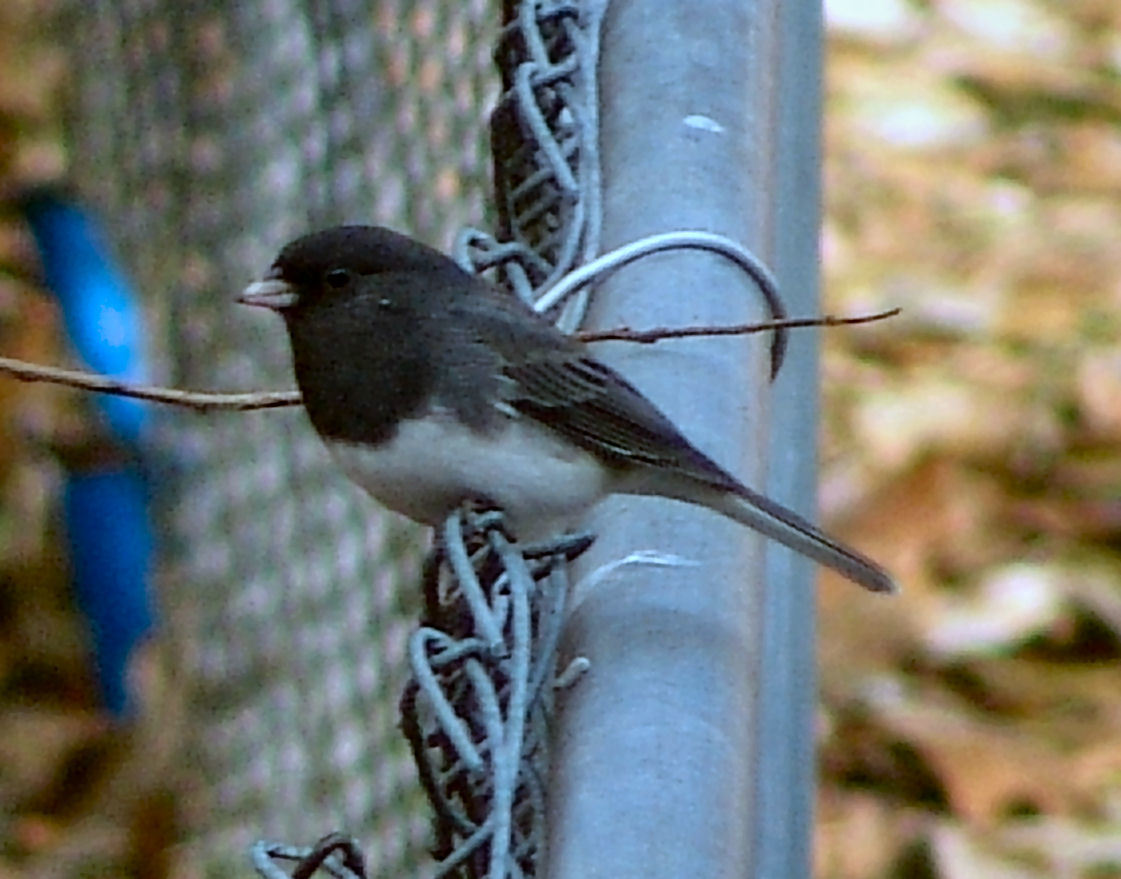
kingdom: Animalia
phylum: Chordata
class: Aves
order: Passeriformes
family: Passerellidae
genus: Junco
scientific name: Junco hyemalis
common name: Dark-eyed junco
